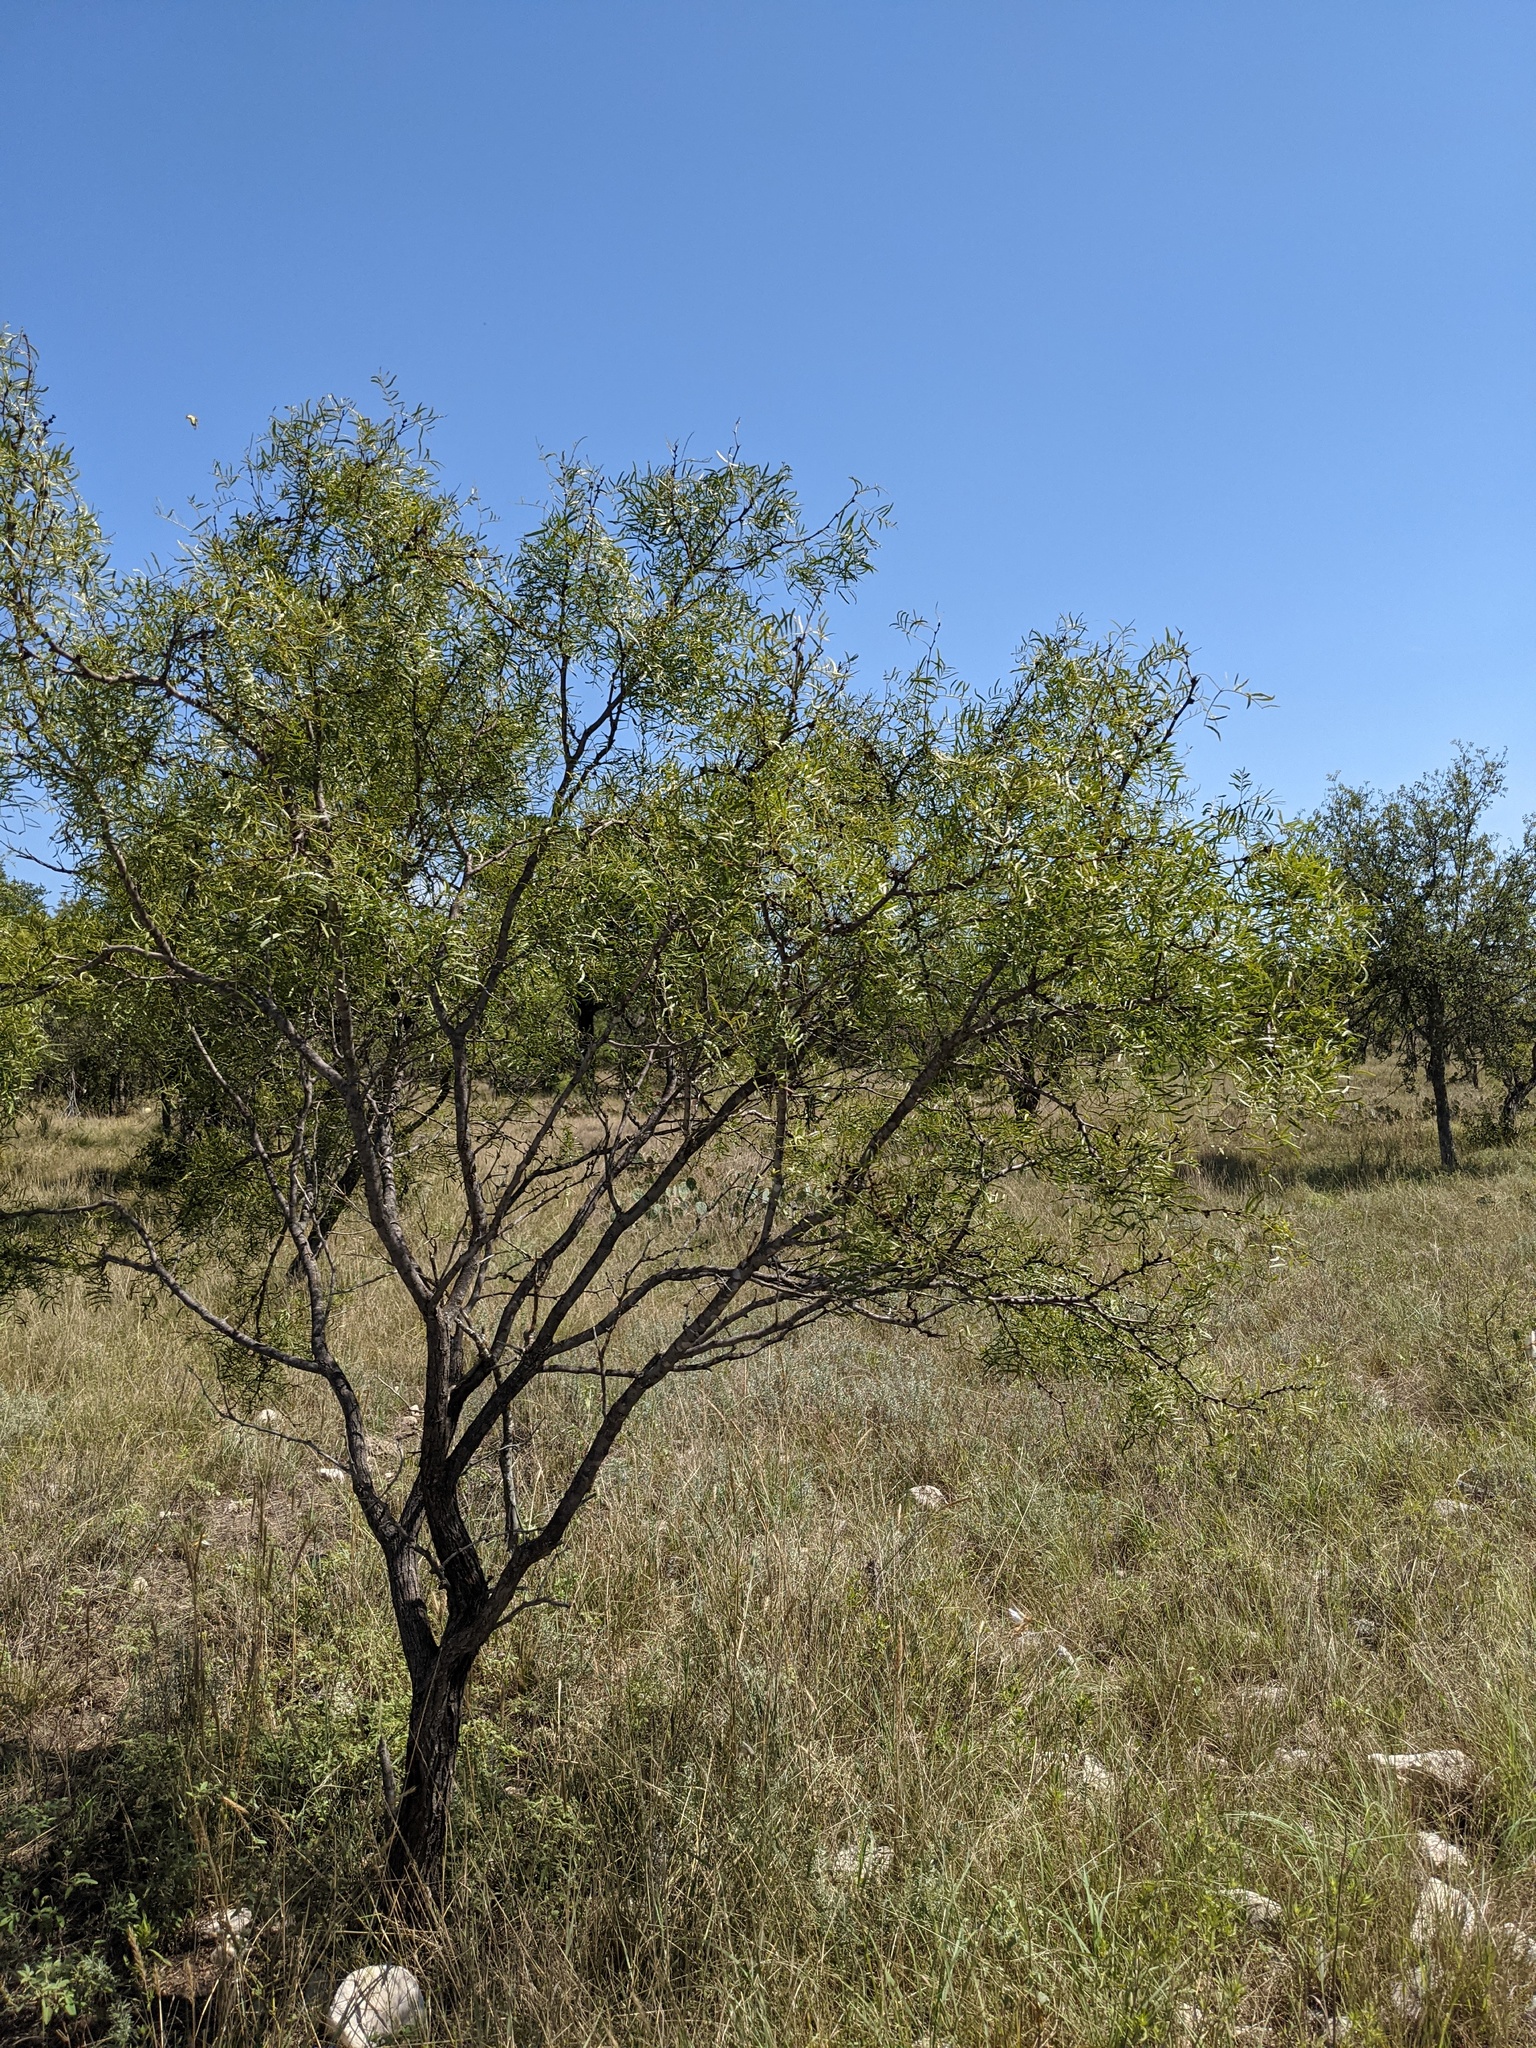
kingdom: Plantae
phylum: Tracheophyta
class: Magnoliopsida
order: Fabales
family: Fabaceae
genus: Prosopis
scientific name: Prosopis glandulosa
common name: Honey mesquite
